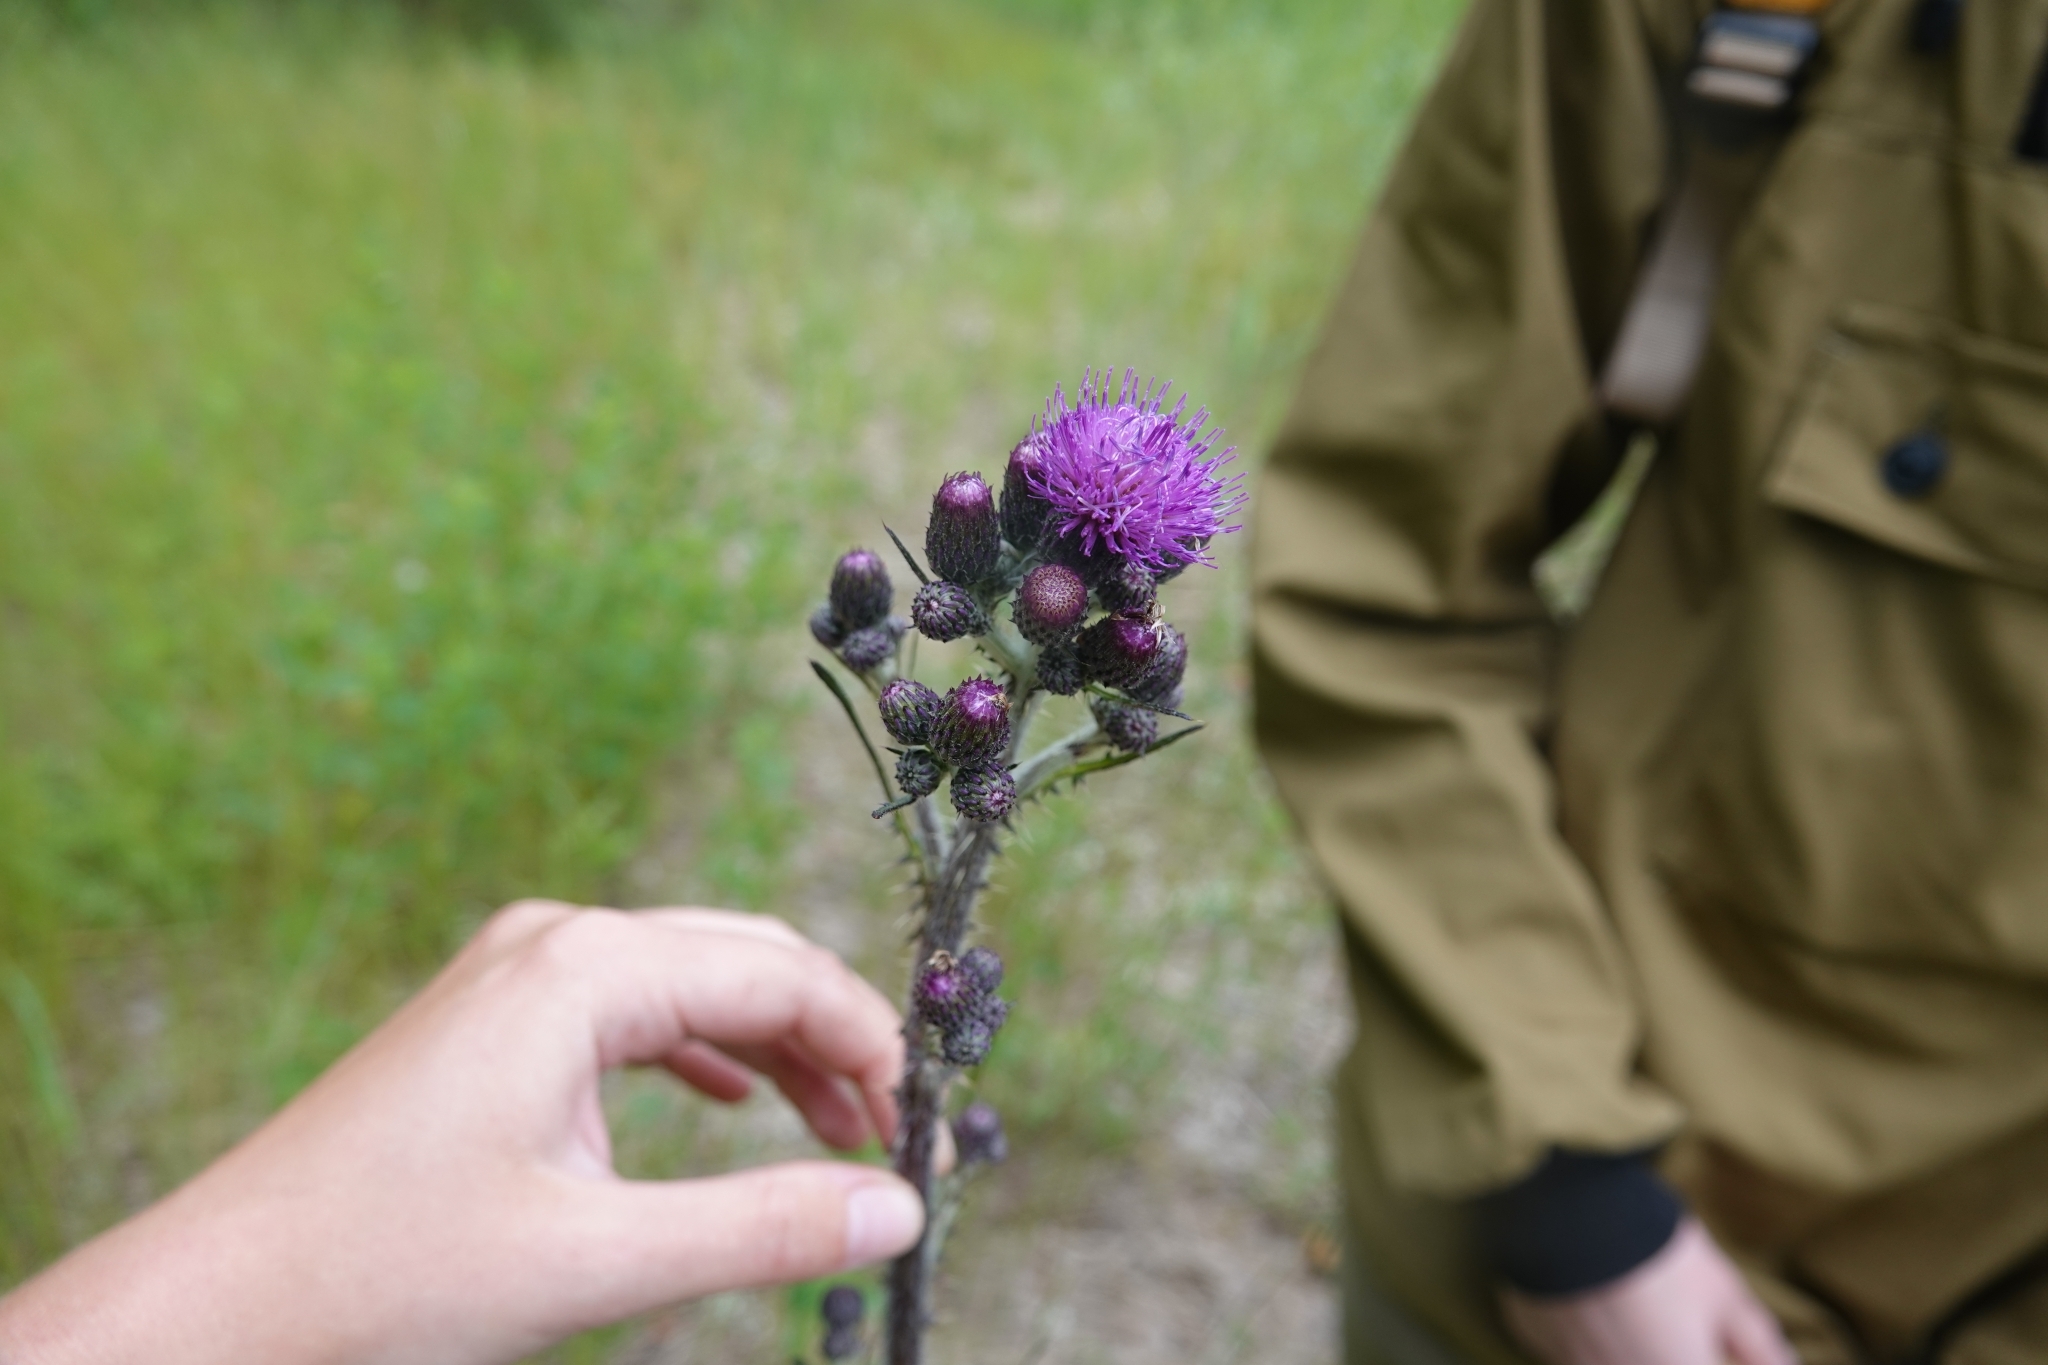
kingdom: Plantae
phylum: Tracheophyta
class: Magnoliopsida
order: Asterales
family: Asteraceae
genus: Cirsium
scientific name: Cirsium palustre
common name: Marsh thistle
